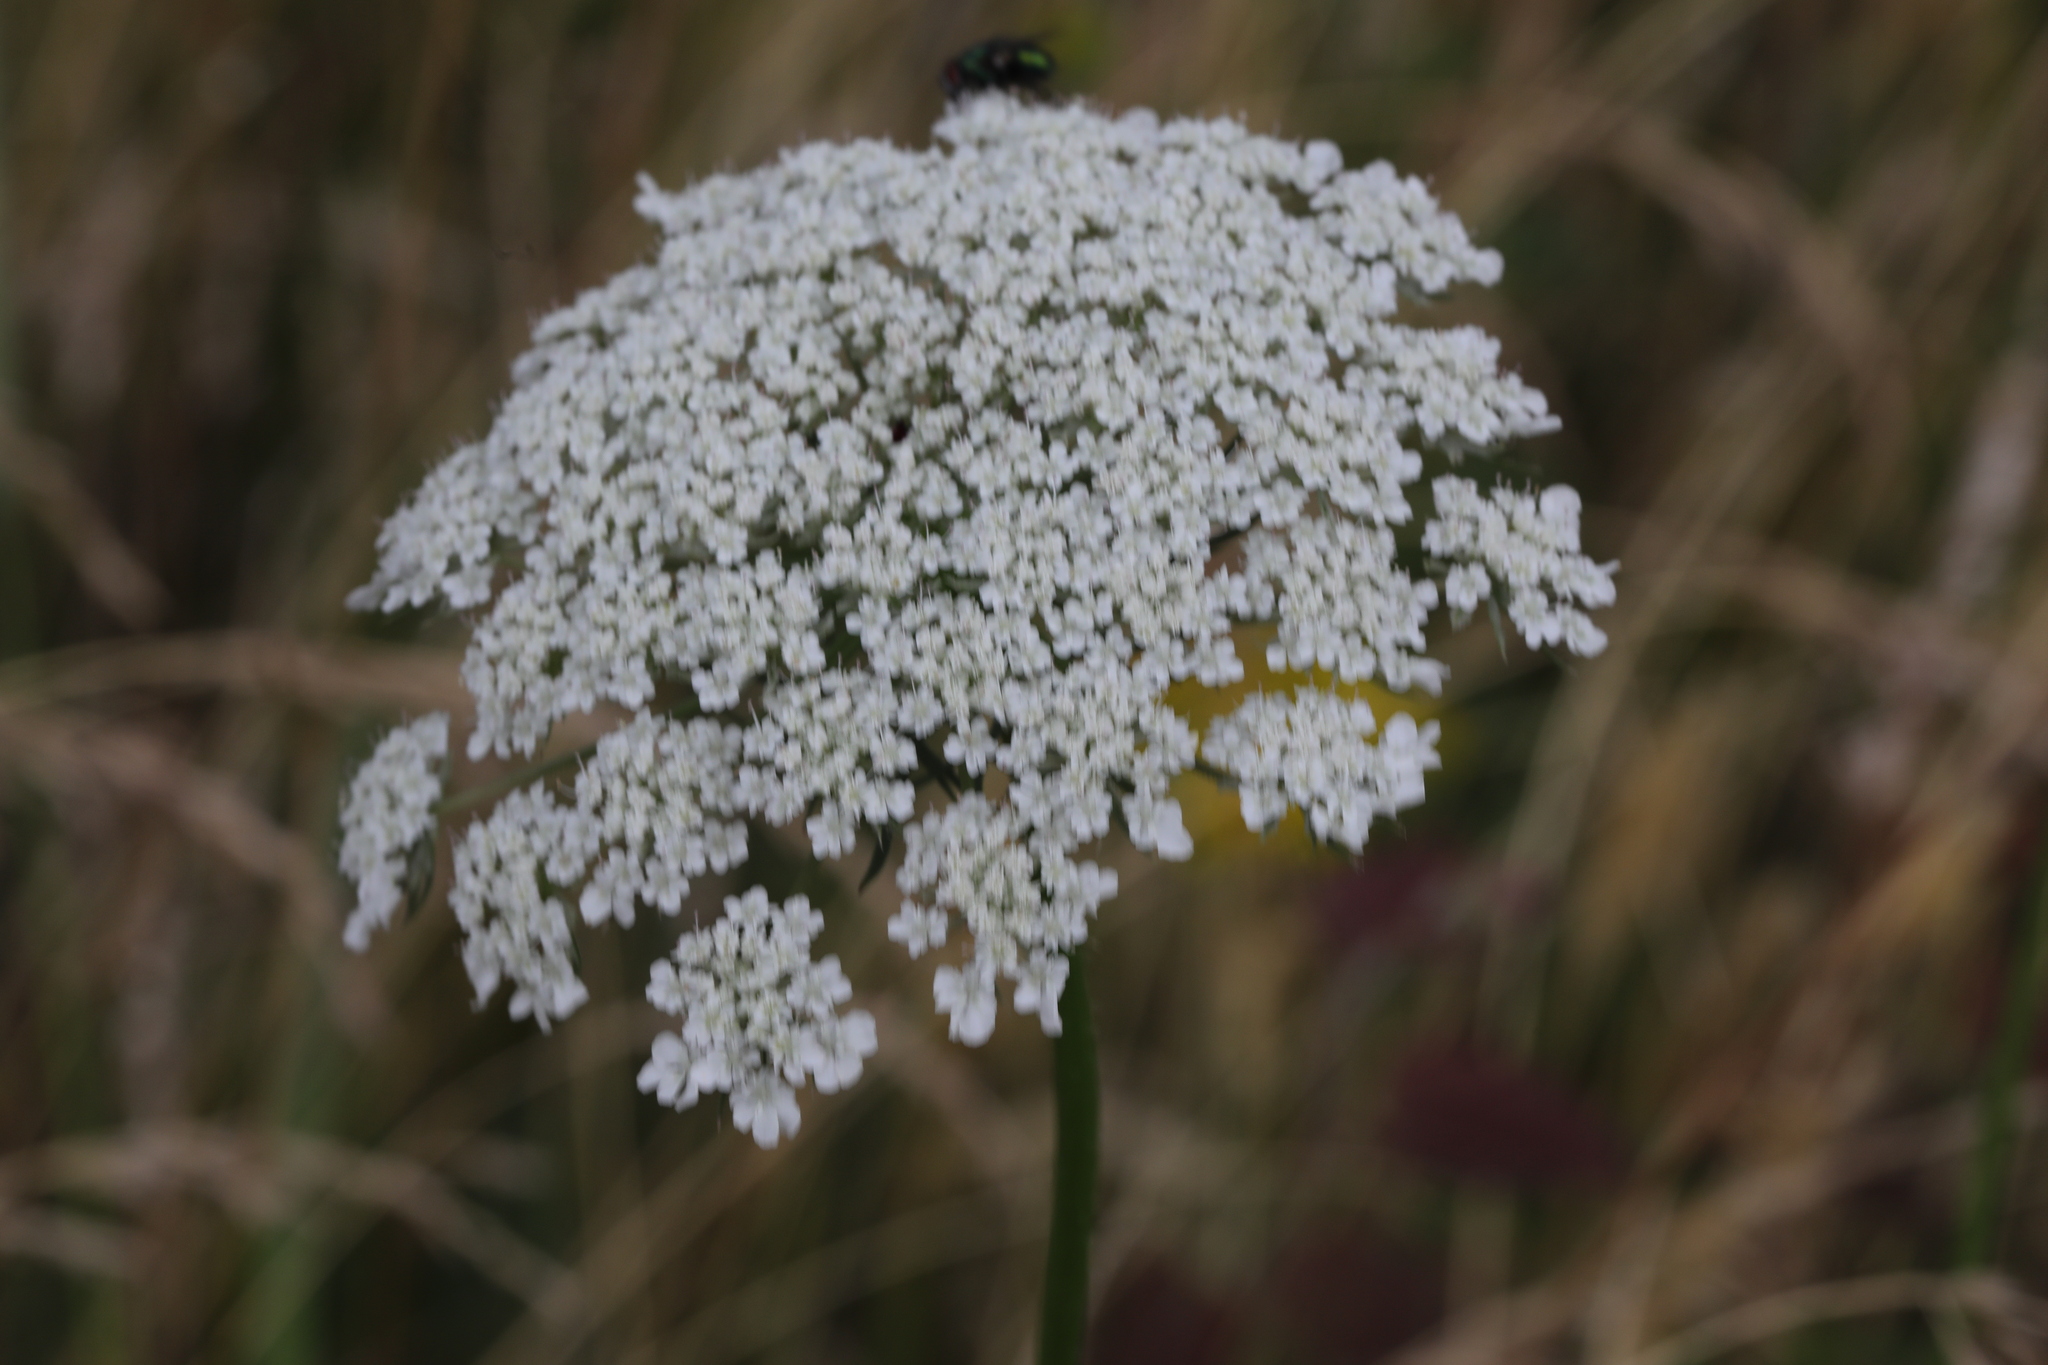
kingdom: Plantae
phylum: Tracheophyta
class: Magnoliopsida
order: Apiales
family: Apiaceae
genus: Daucus
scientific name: Daucus carota
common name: Wild carrot
